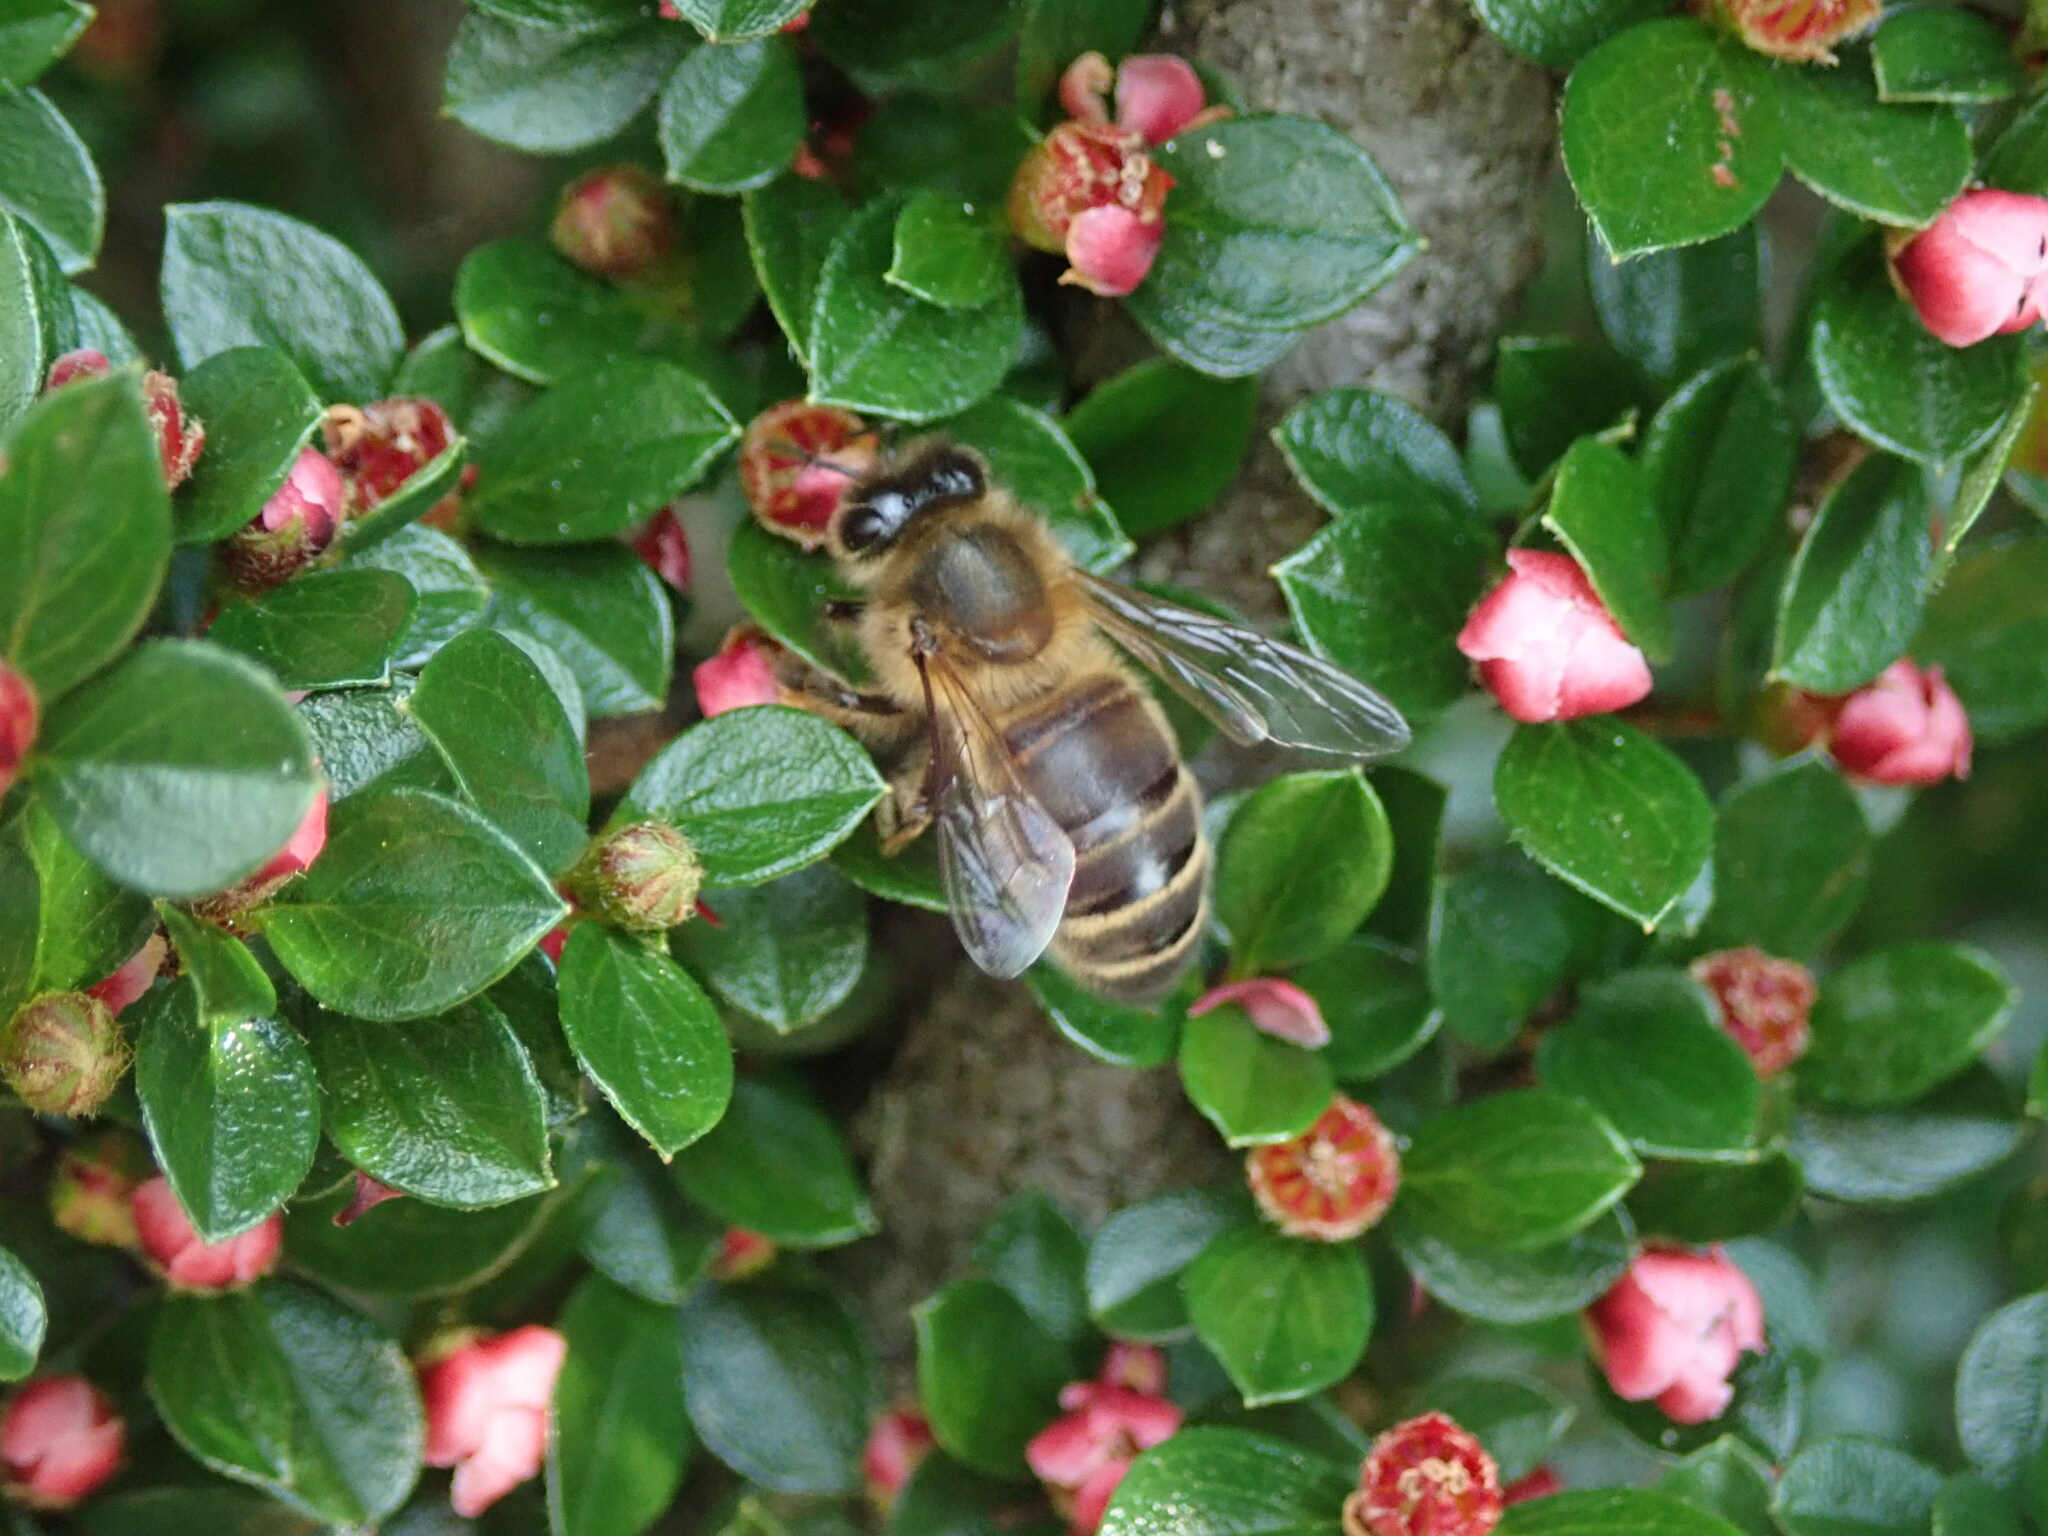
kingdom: Animalia
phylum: Arthropoda
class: Insecta
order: Hymenoptera
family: Apidae
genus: Apis
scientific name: Apis mellifera
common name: Honey bee
